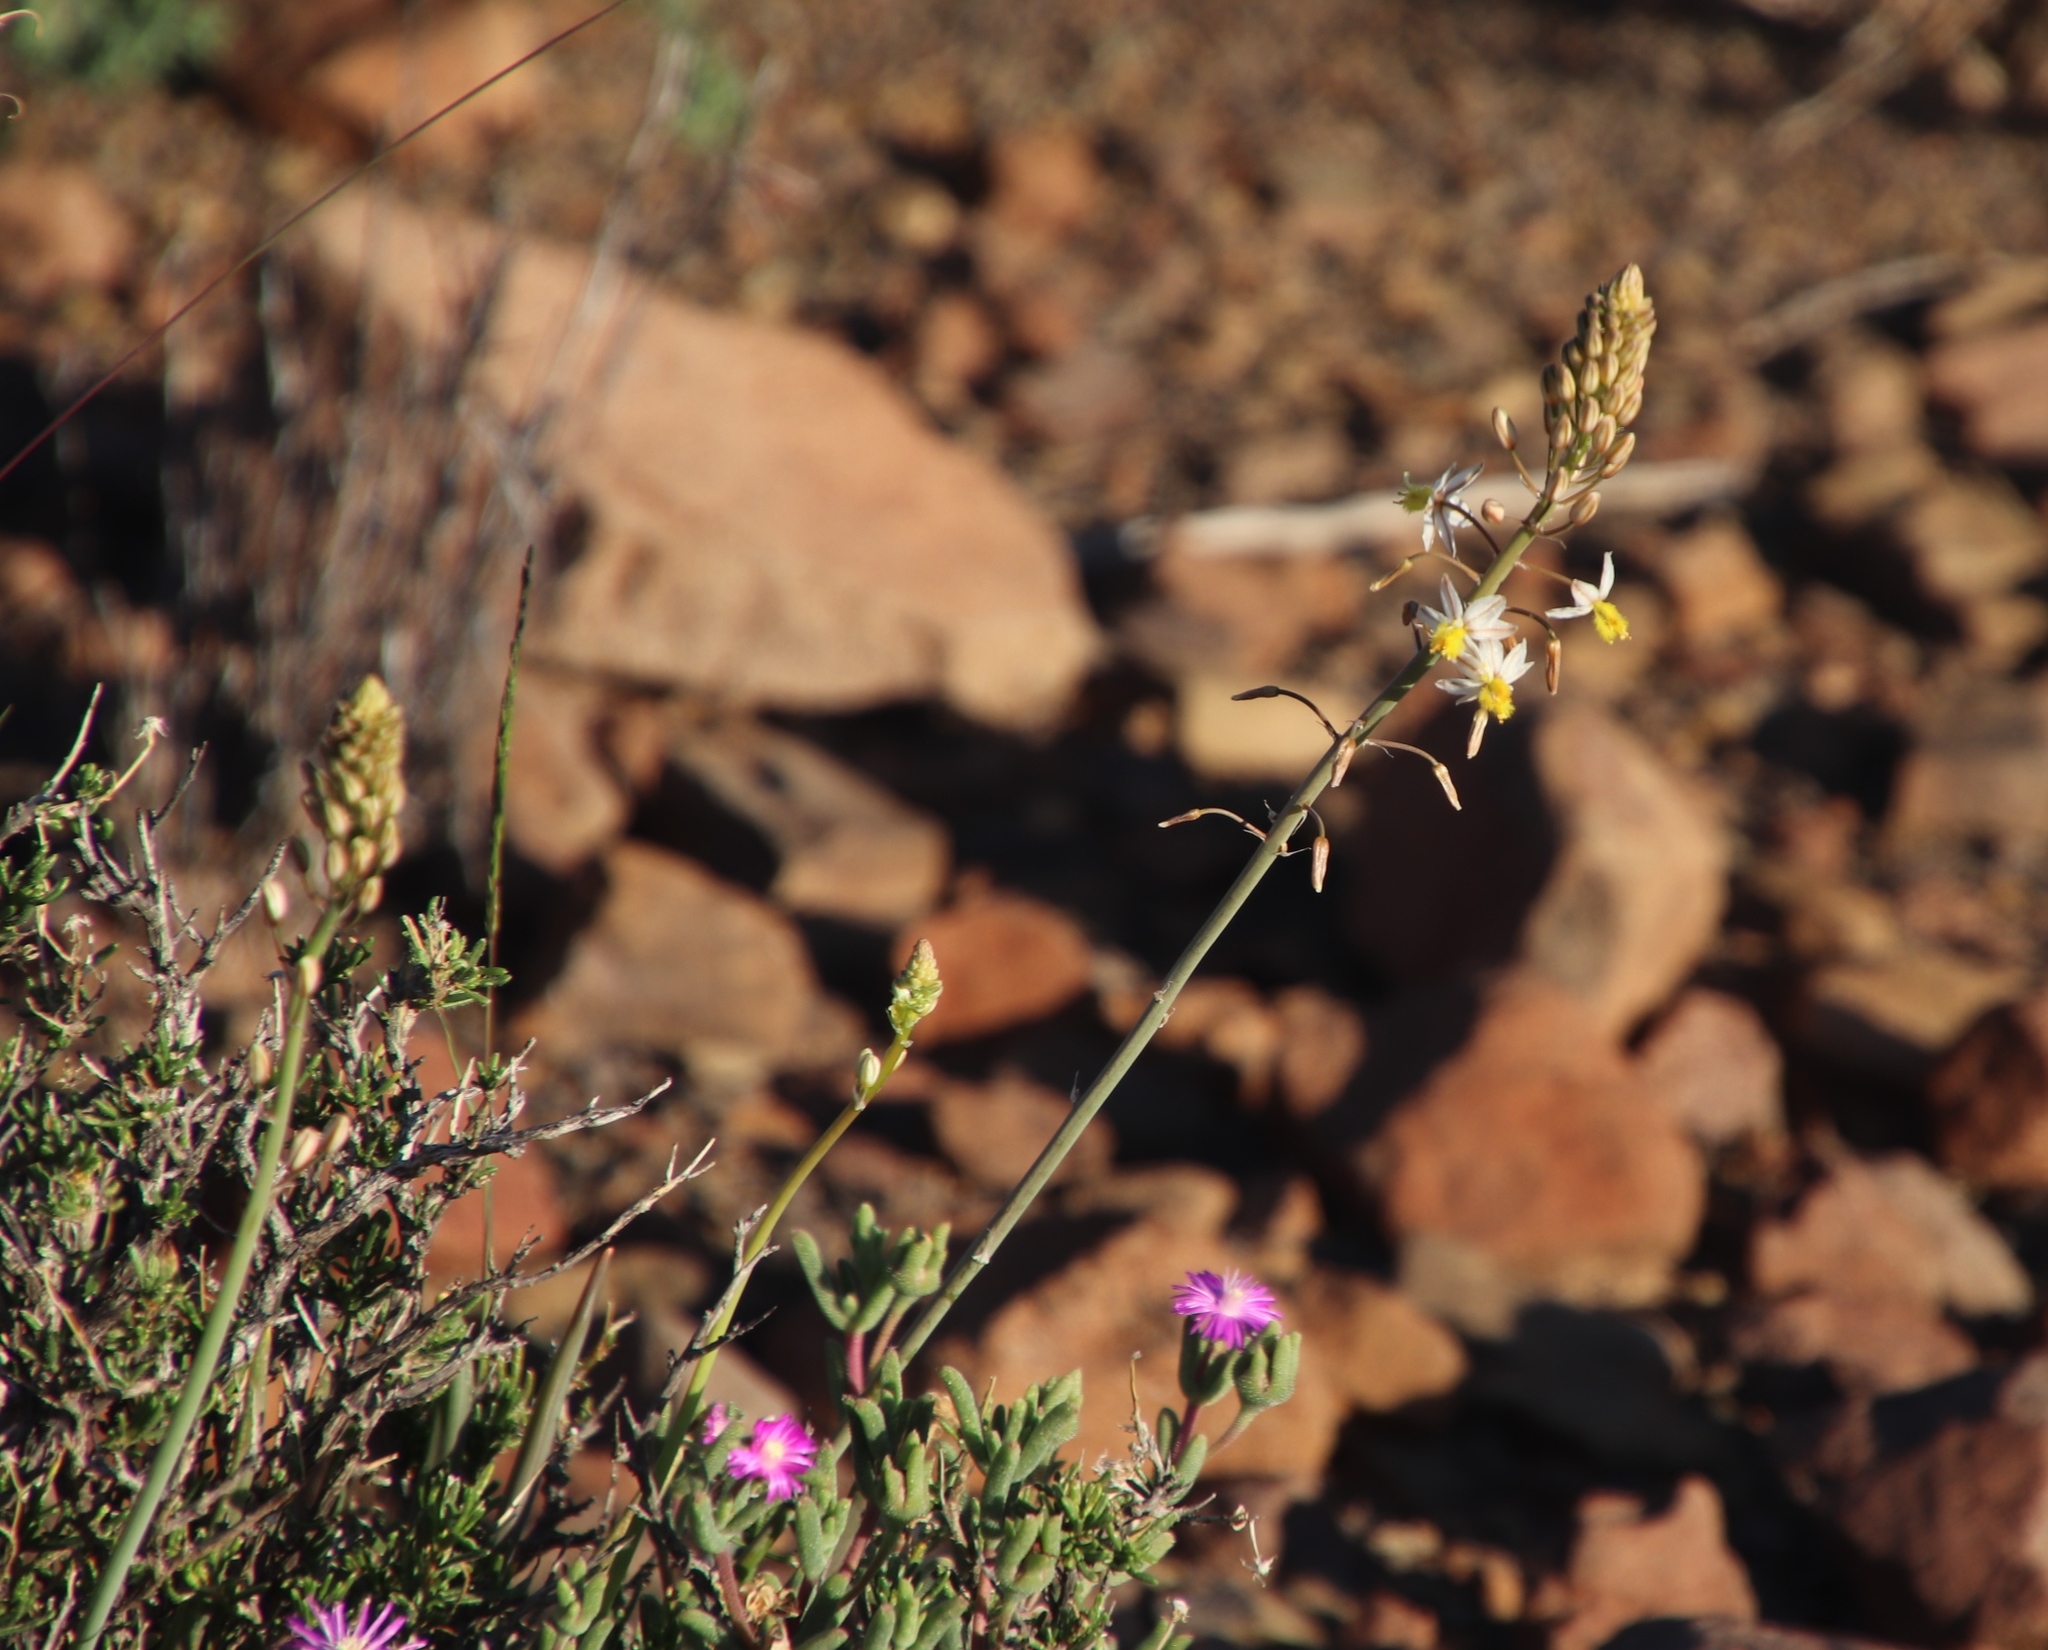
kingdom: Plantae
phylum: Tracheophyta
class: Liliopsida
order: Asparagales
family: Asphodelaceae
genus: Bulbine
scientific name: Bulbine triebneri
